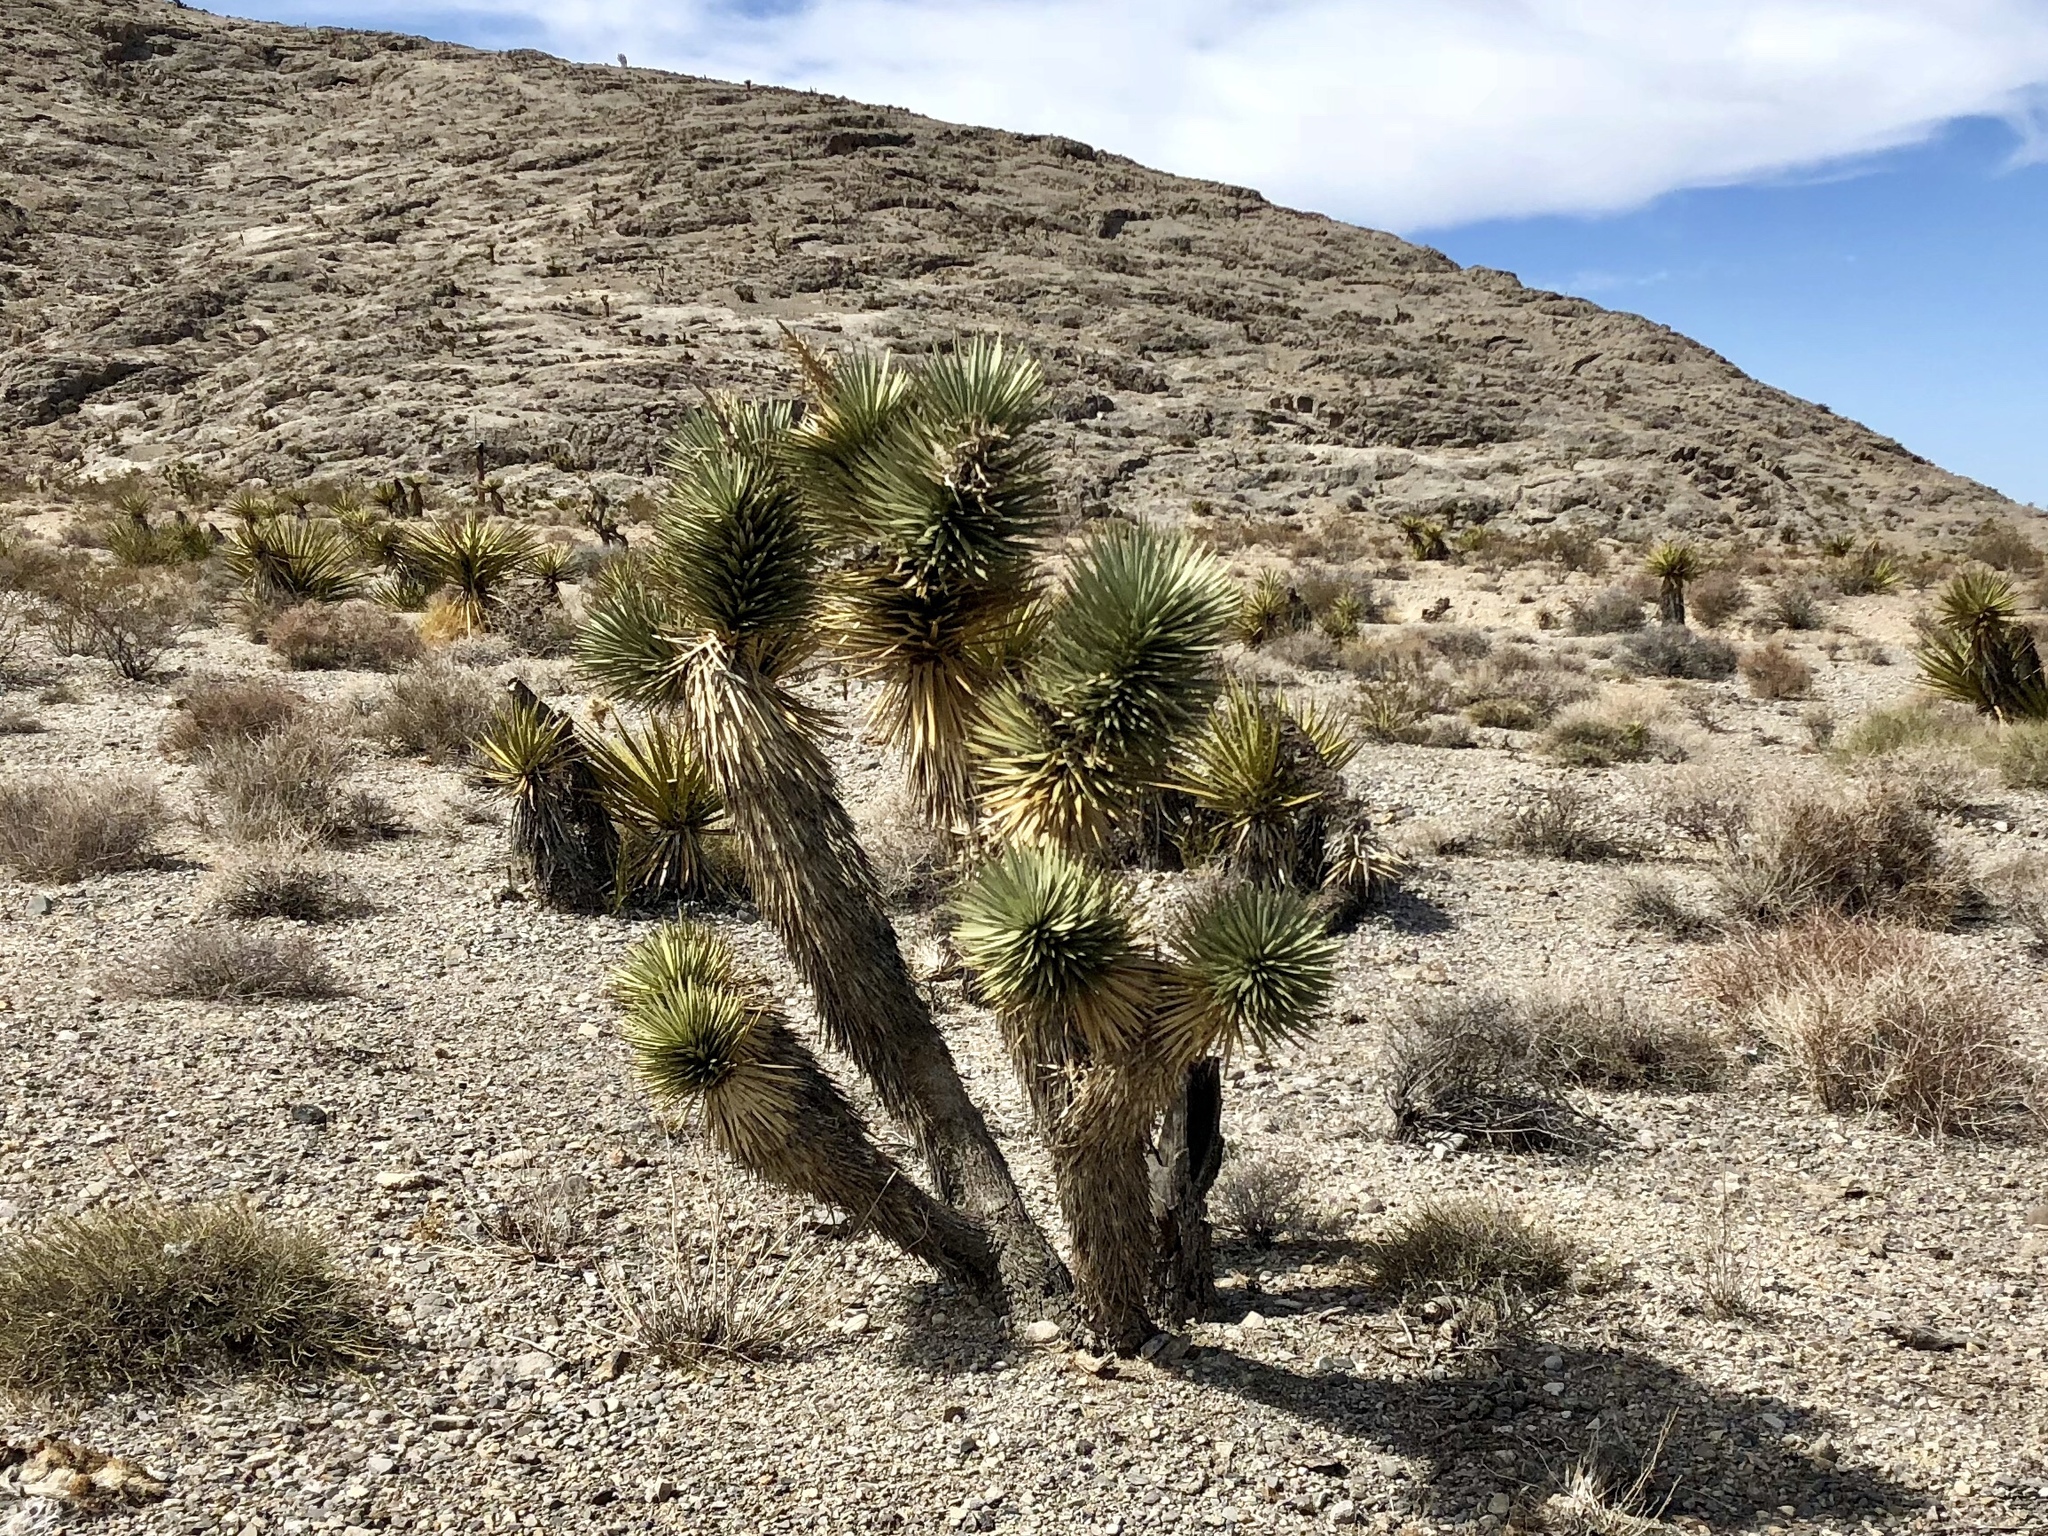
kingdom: Plantae
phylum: Tracheophyta
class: Liliopsida
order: Asparagales
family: Asparagaceae
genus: Yucca
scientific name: Yucca brevifolia
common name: Joshua tree
